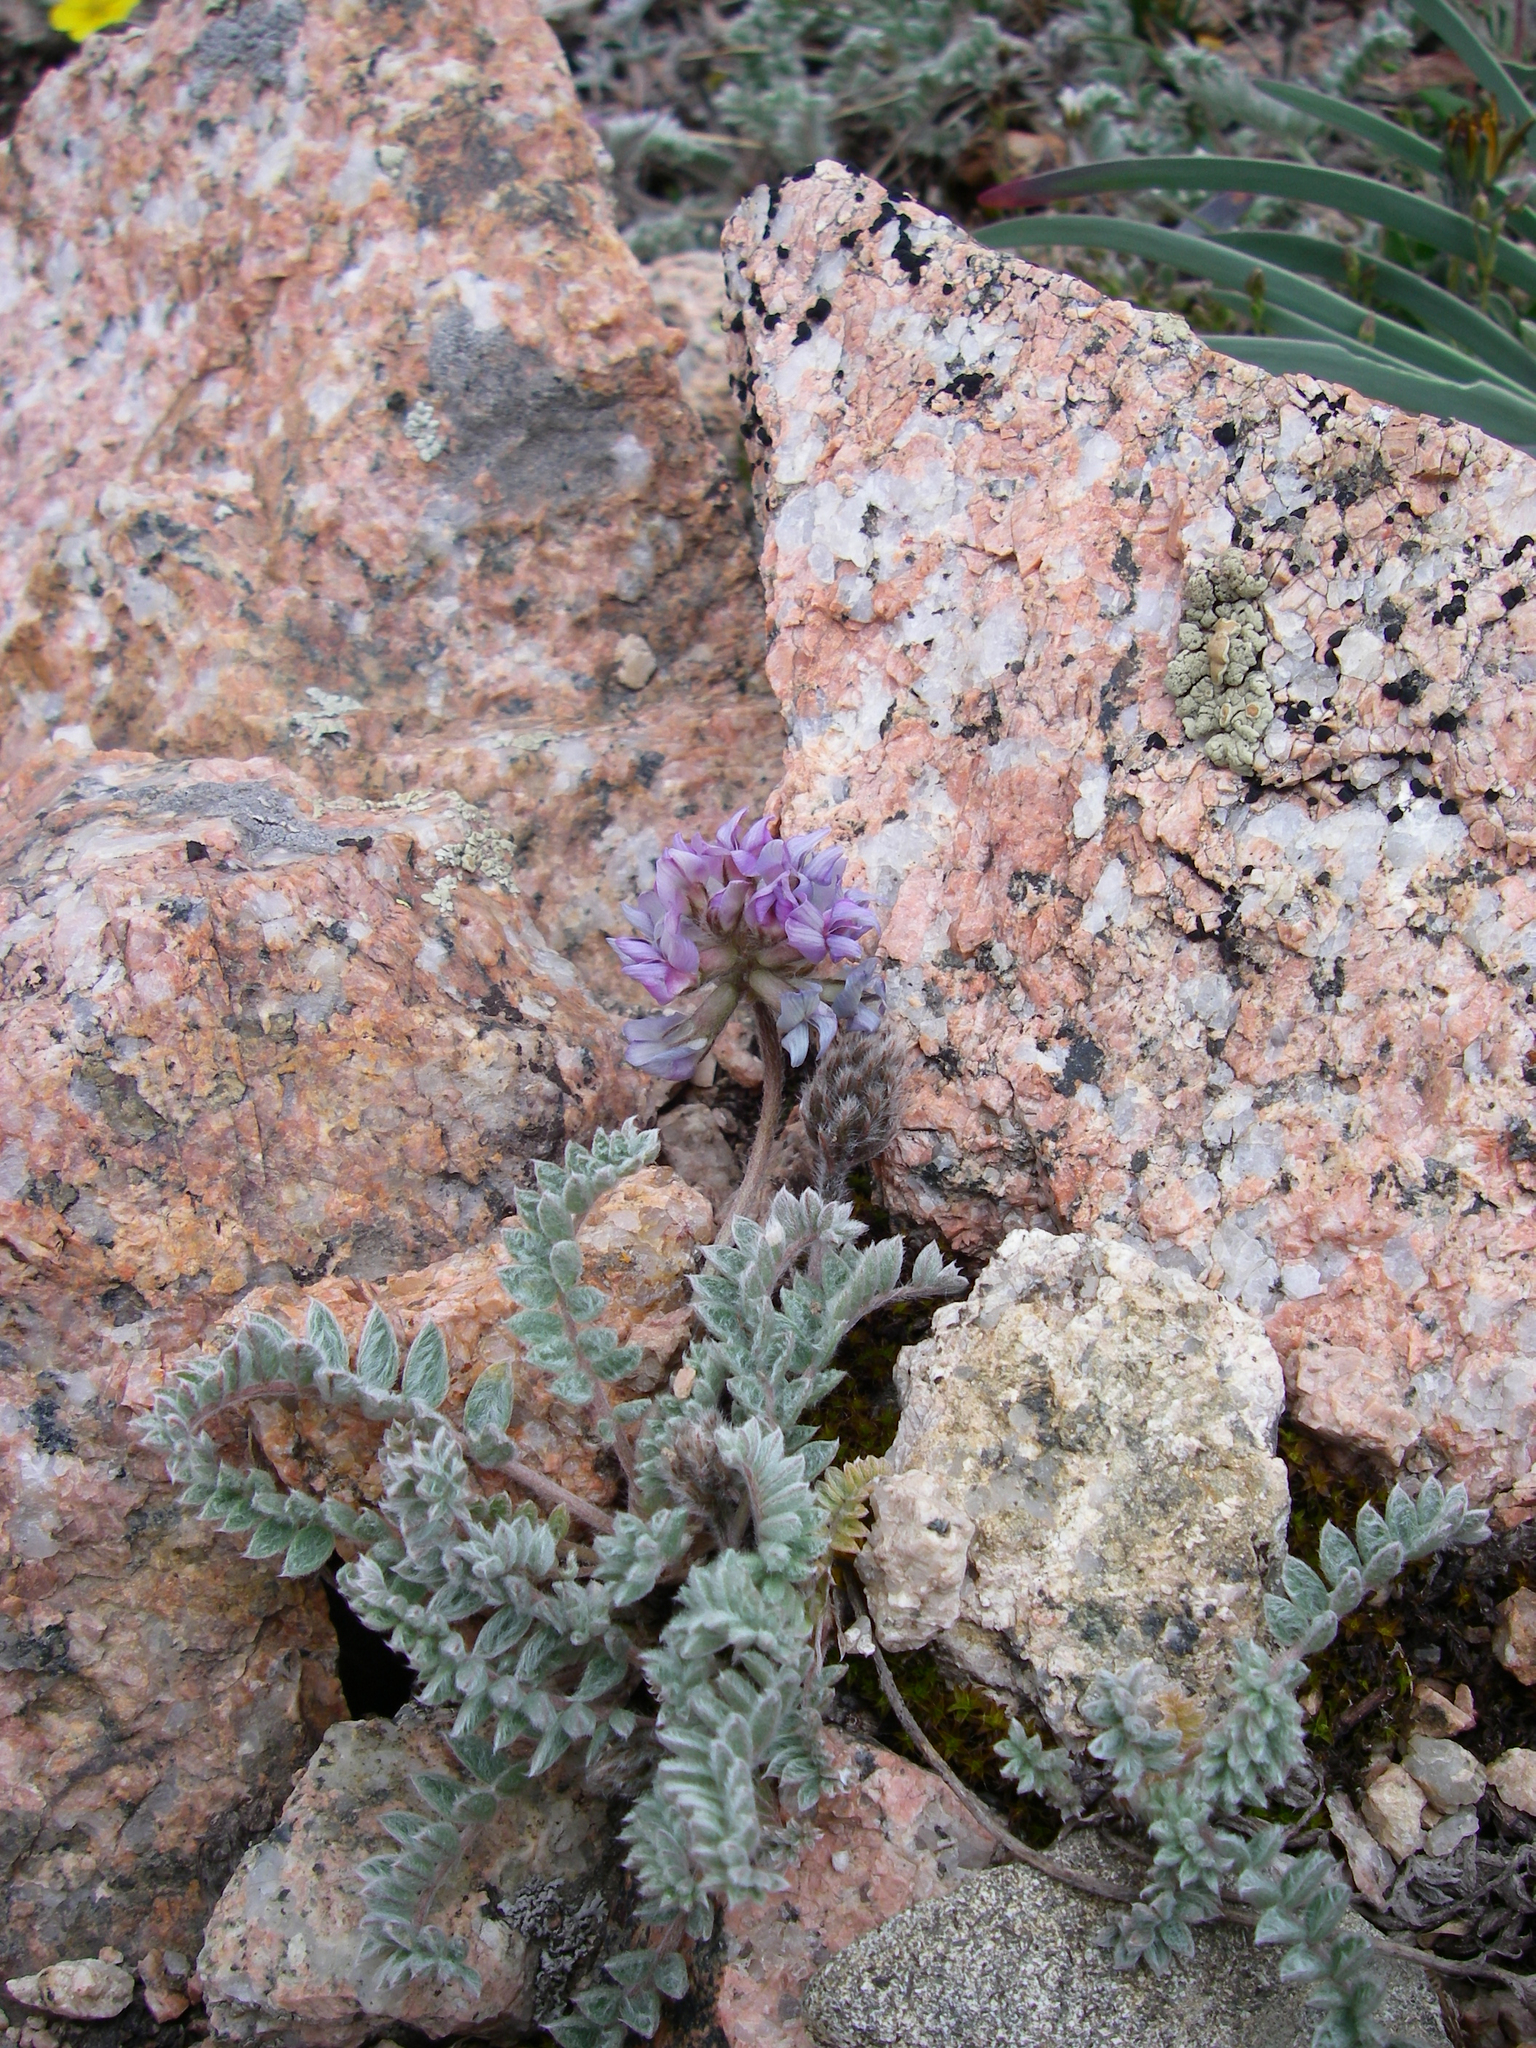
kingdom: Plantae
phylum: Tracheophyta
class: Magnoliopsida
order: Fabales
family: Fabaceae
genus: Oxytropis
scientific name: Oxytropis sewerzowii
